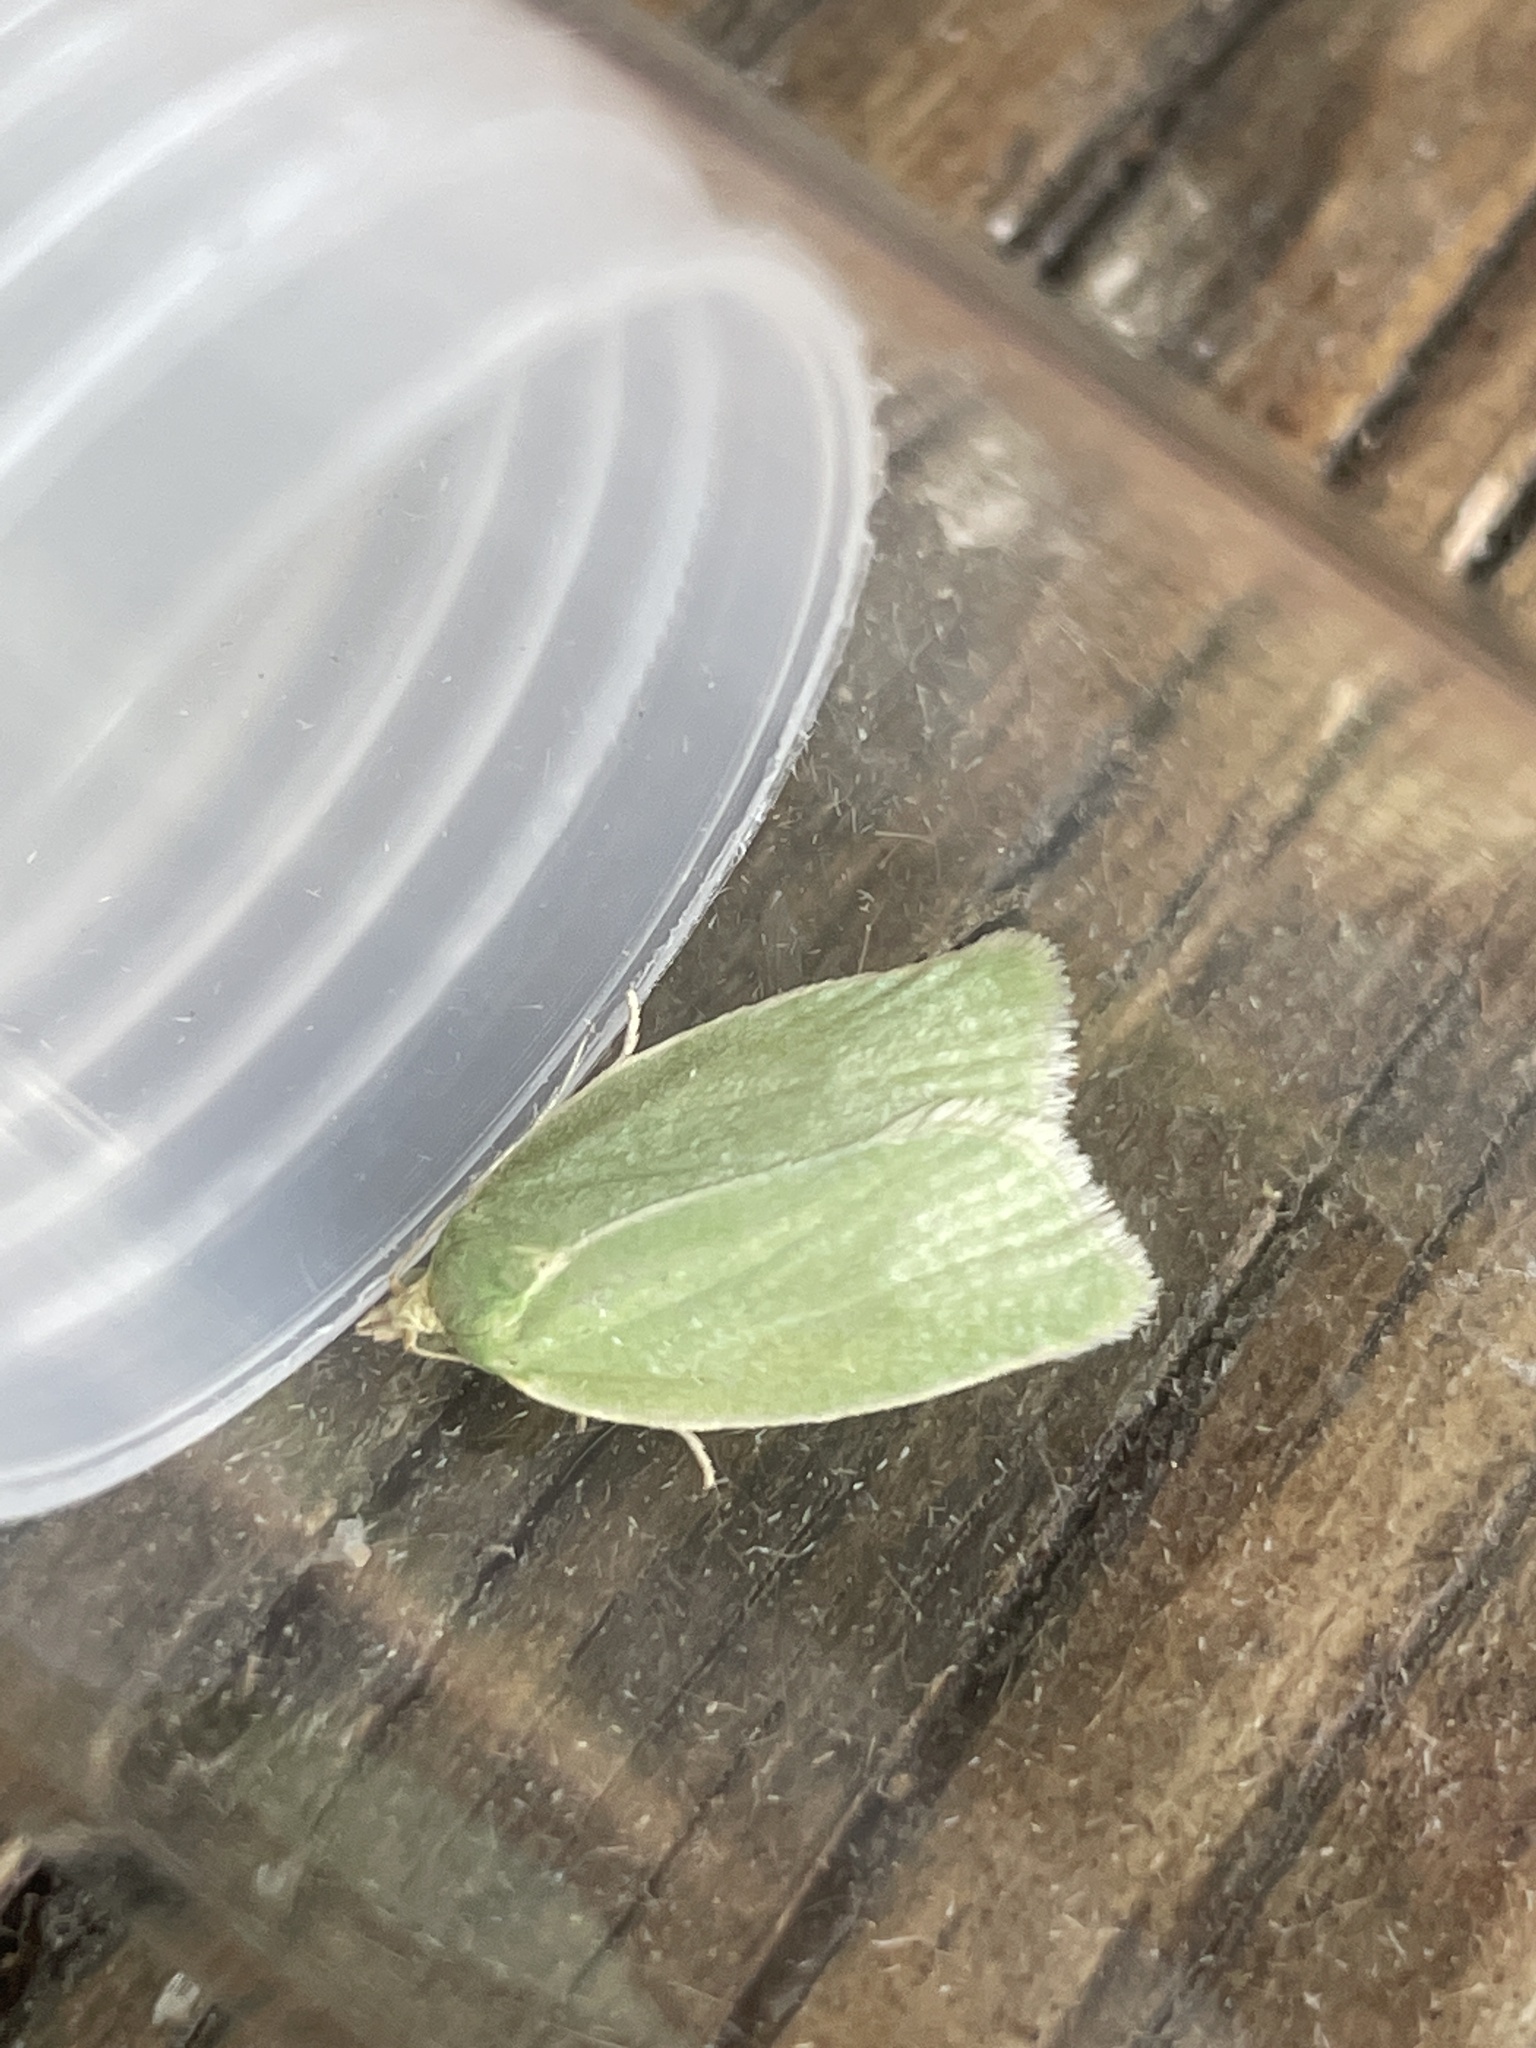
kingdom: Animalia
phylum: Arthropoda
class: Insecta
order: Lepidoptera
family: Tortricidae
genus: Tortrix
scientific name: Tortrix viridana
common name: Green oak tortrix
